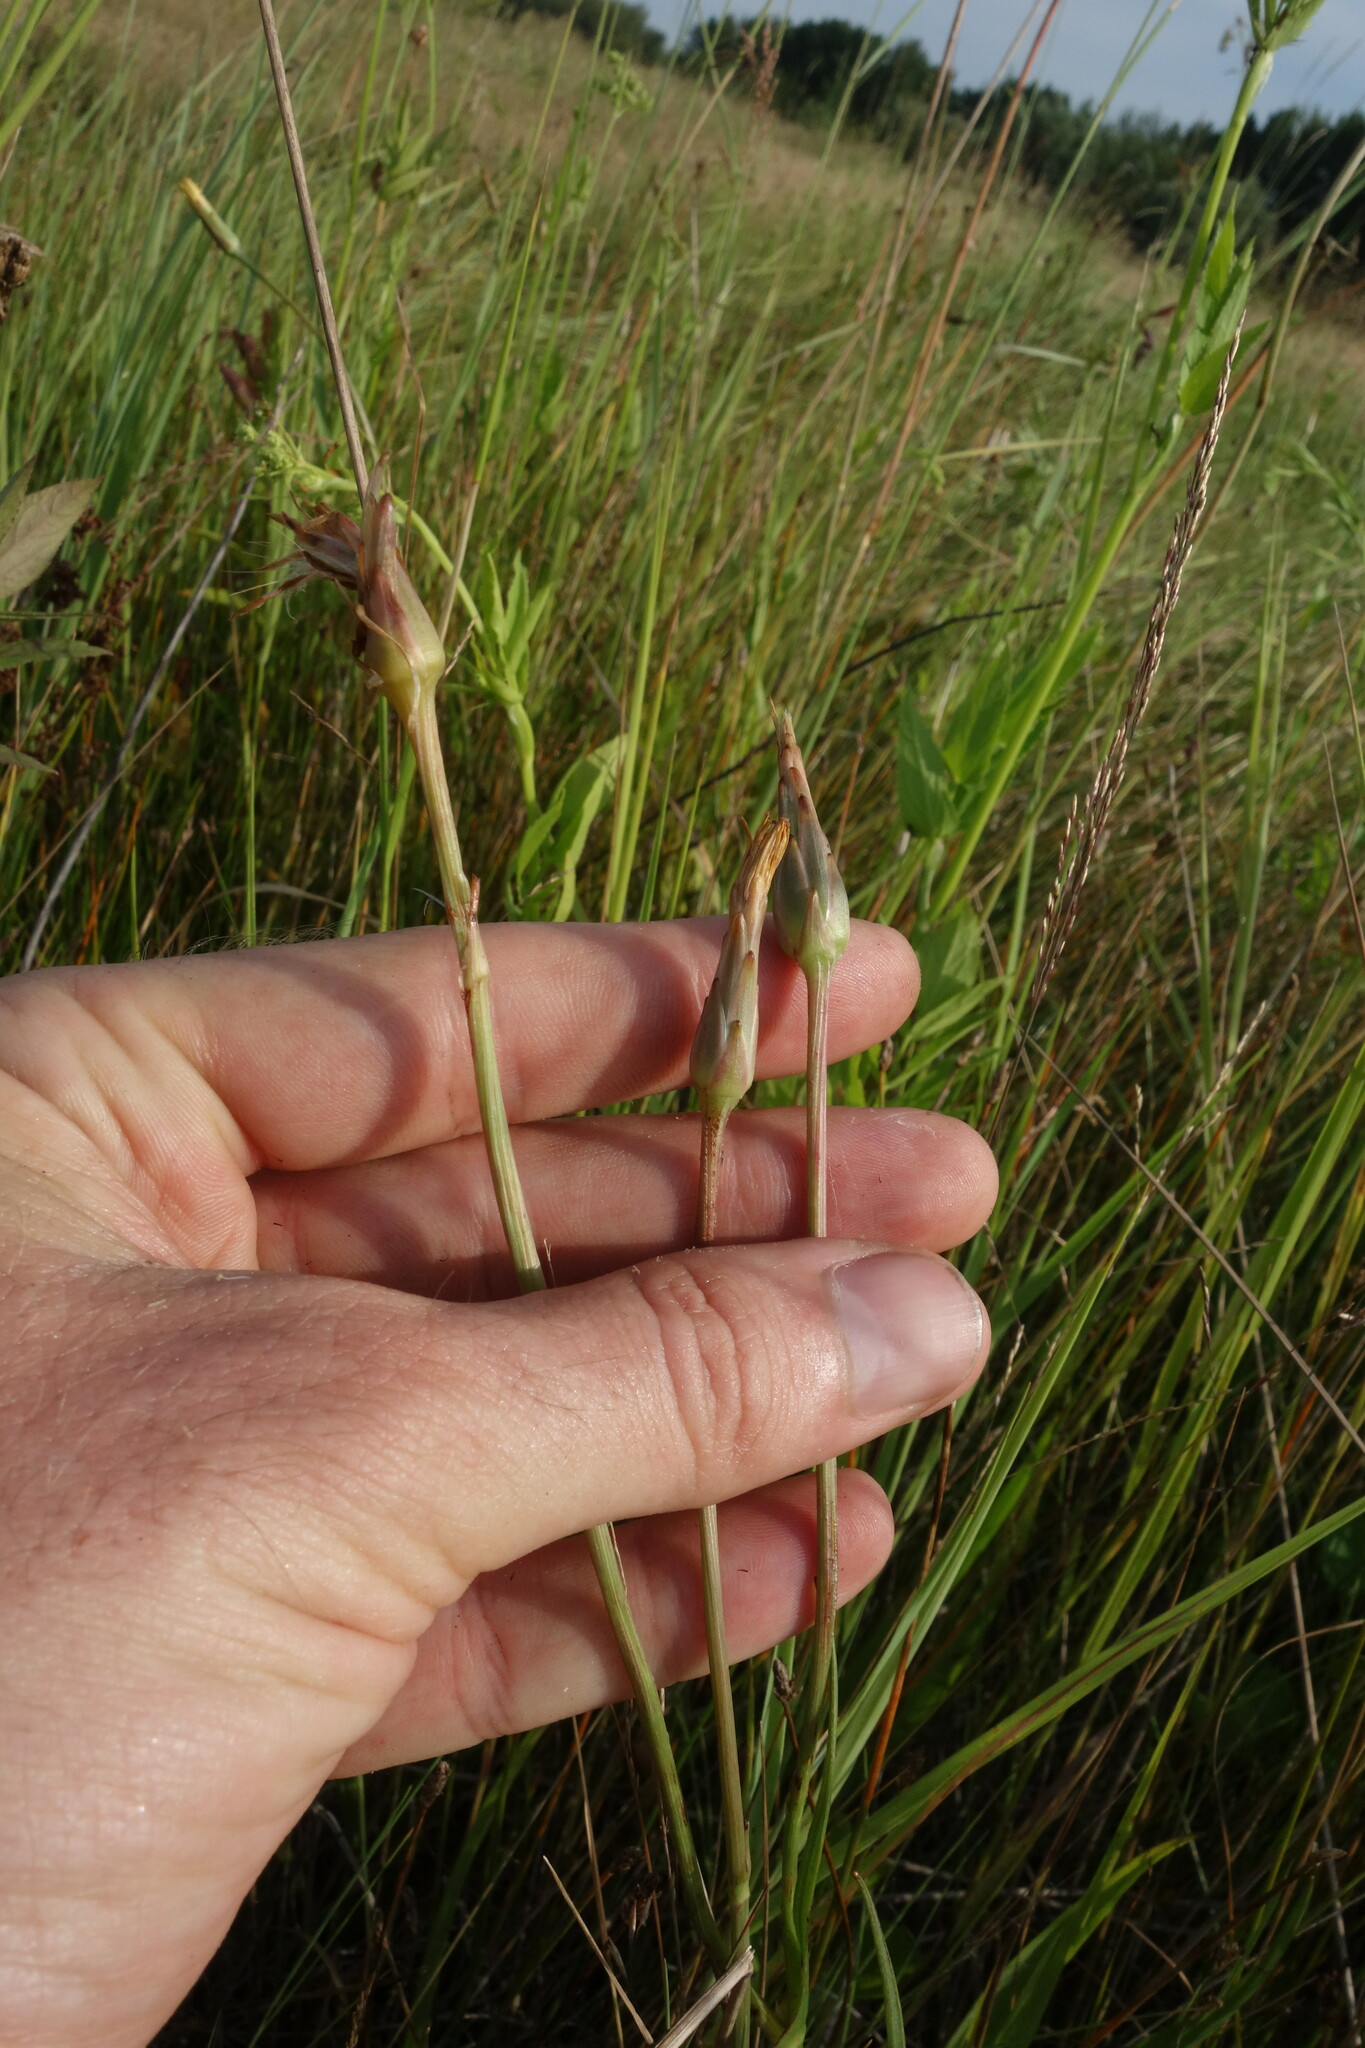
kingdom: Plantae
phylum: Tracheophyta
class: Magnoliopsida
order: Asterales
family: Asteraceae
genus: Scorzonera
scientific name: Scorzonera parviflora
